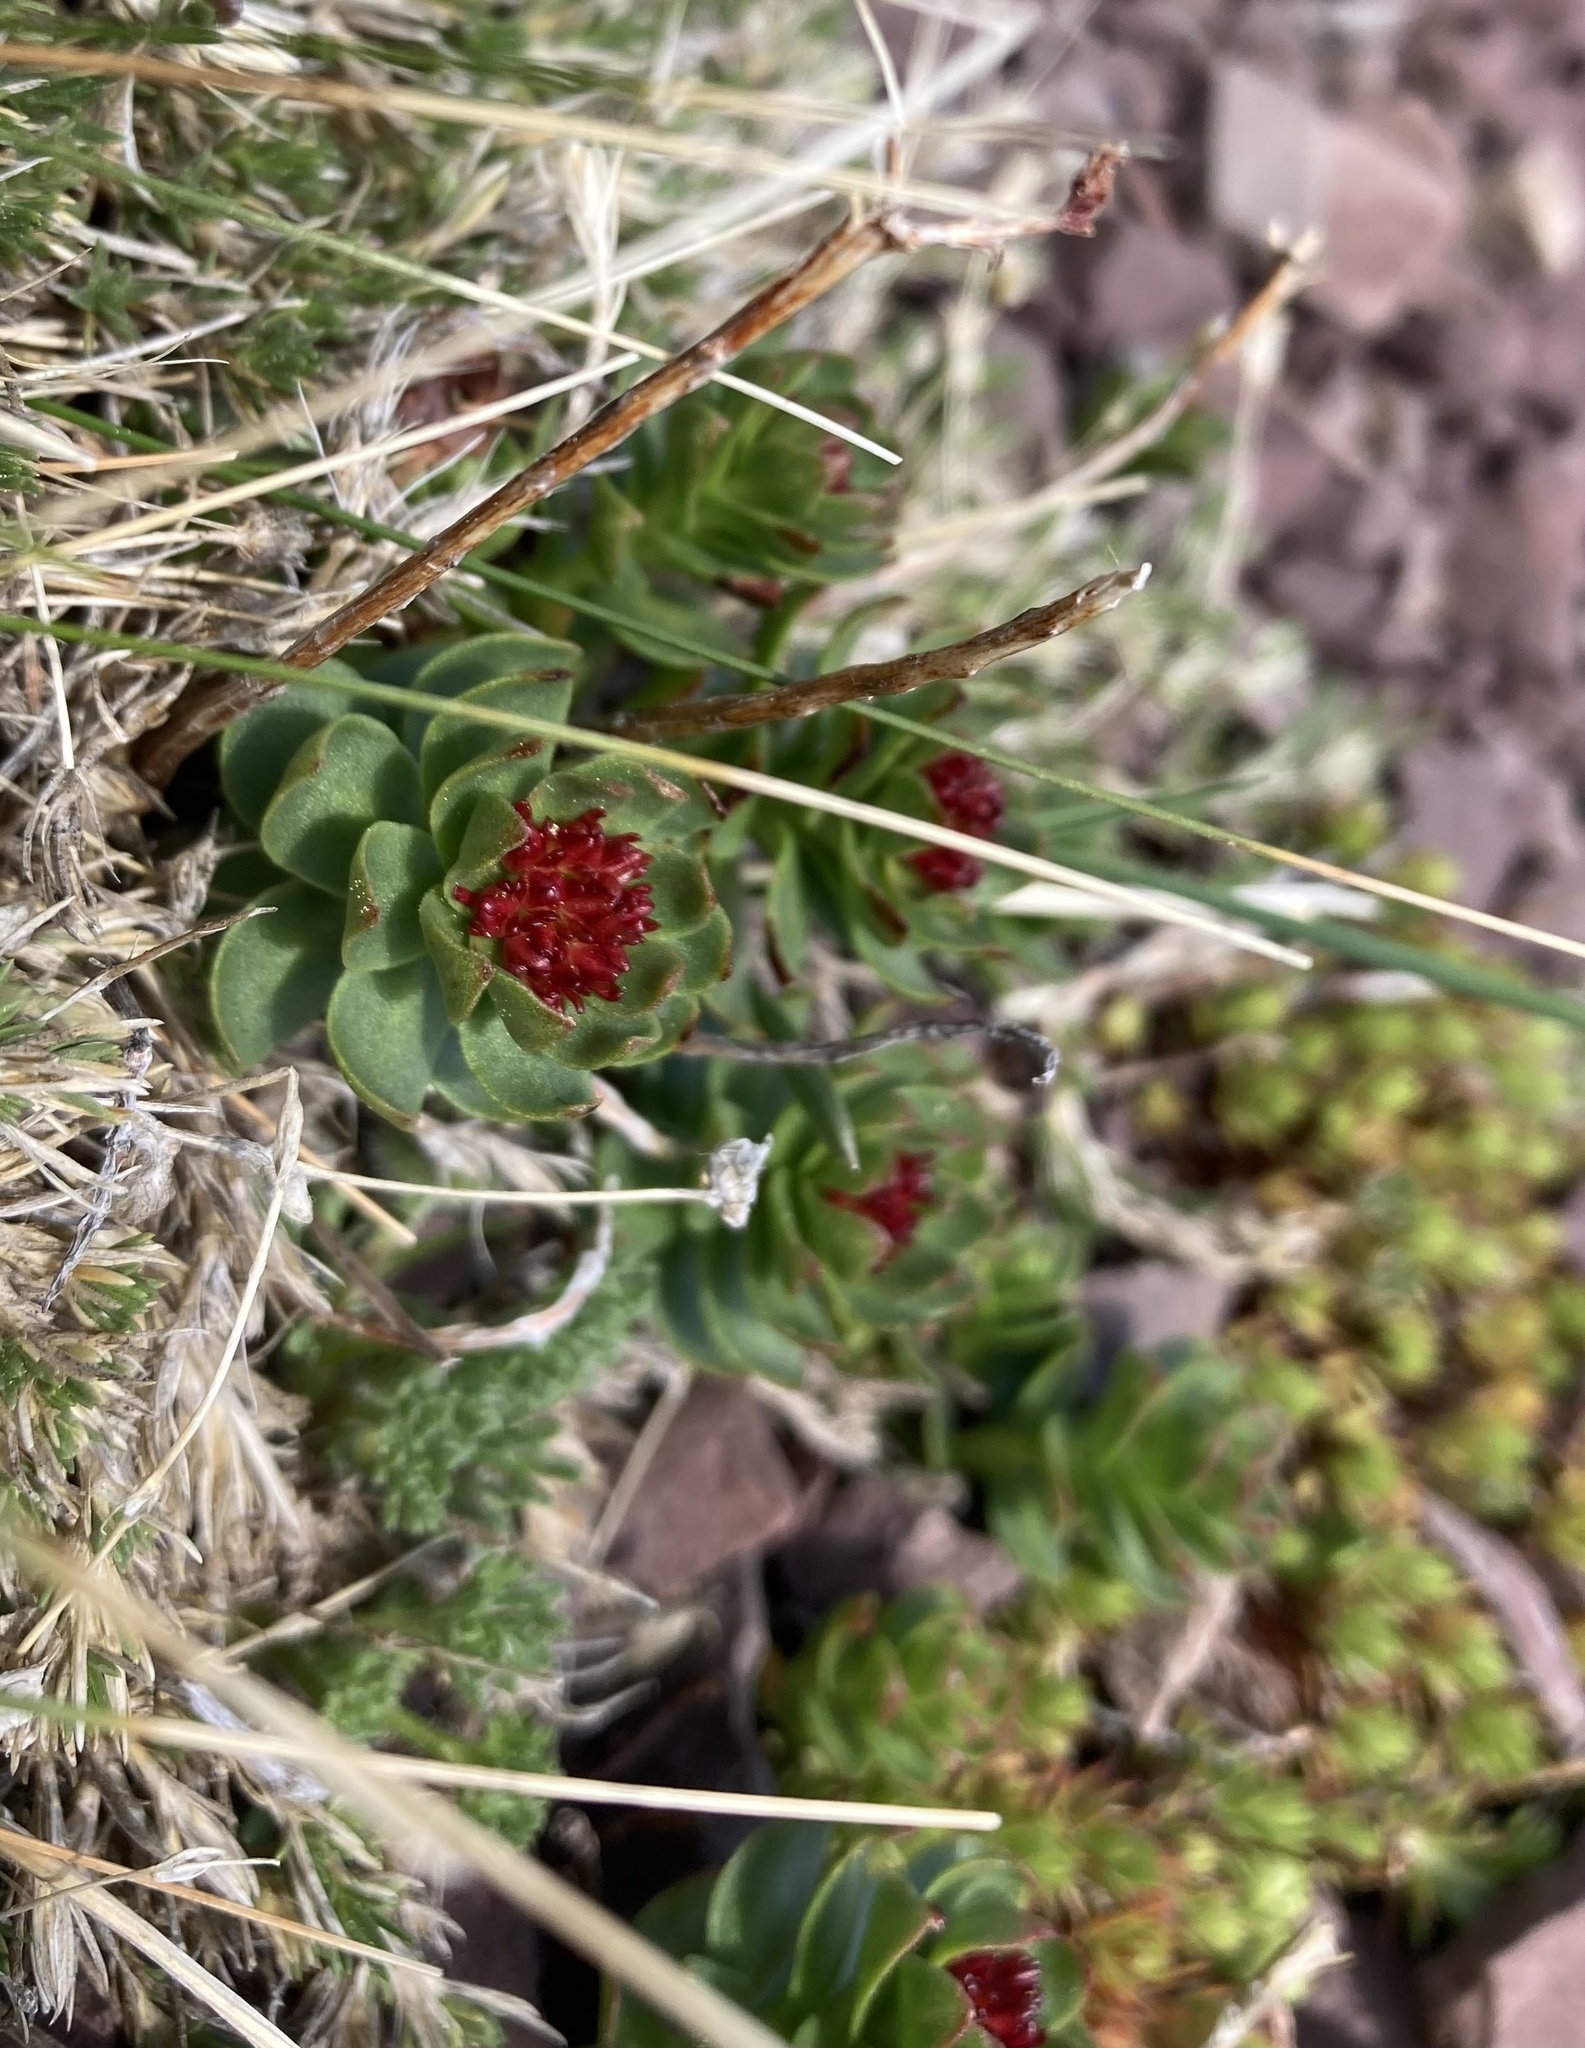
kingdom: Plantae
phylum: Tracheophyta
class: Magnoliopsida
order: Saxifragales
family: Crassulaceae
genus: Rhodiola
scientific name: Rhodiola integrifolia
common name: Western roseroot
